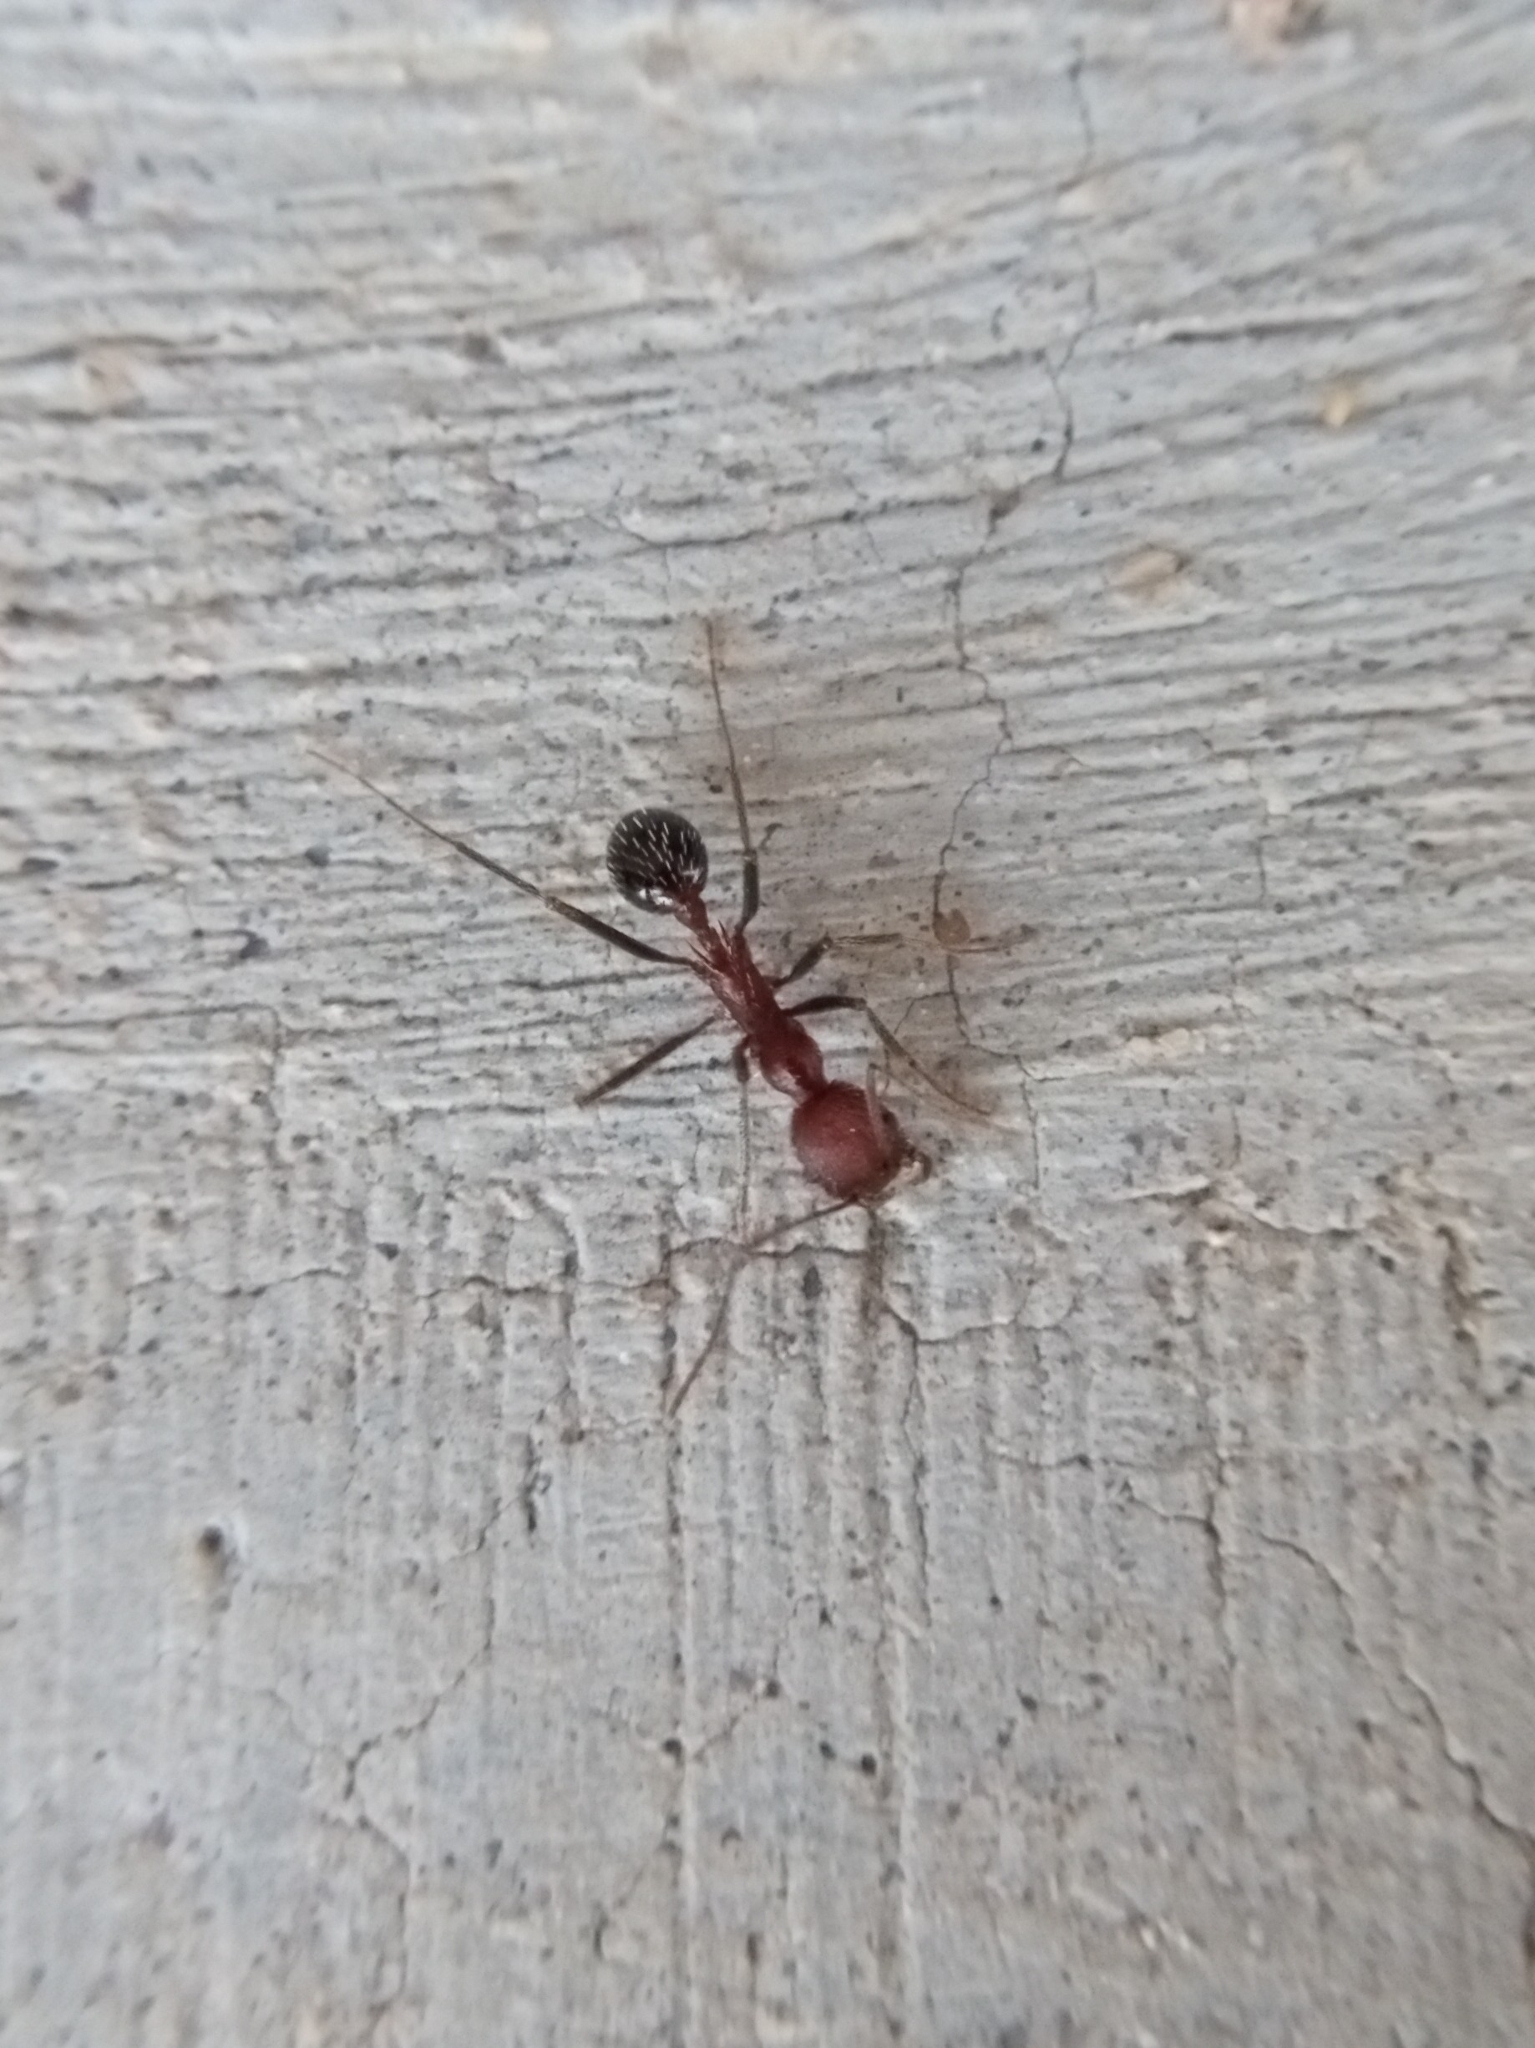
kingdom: Animalia
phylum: Arthropoda
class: Insecta
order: Hymenoptera
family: Formicidae
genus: Novomessor
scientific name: Novomessor albisetosa
